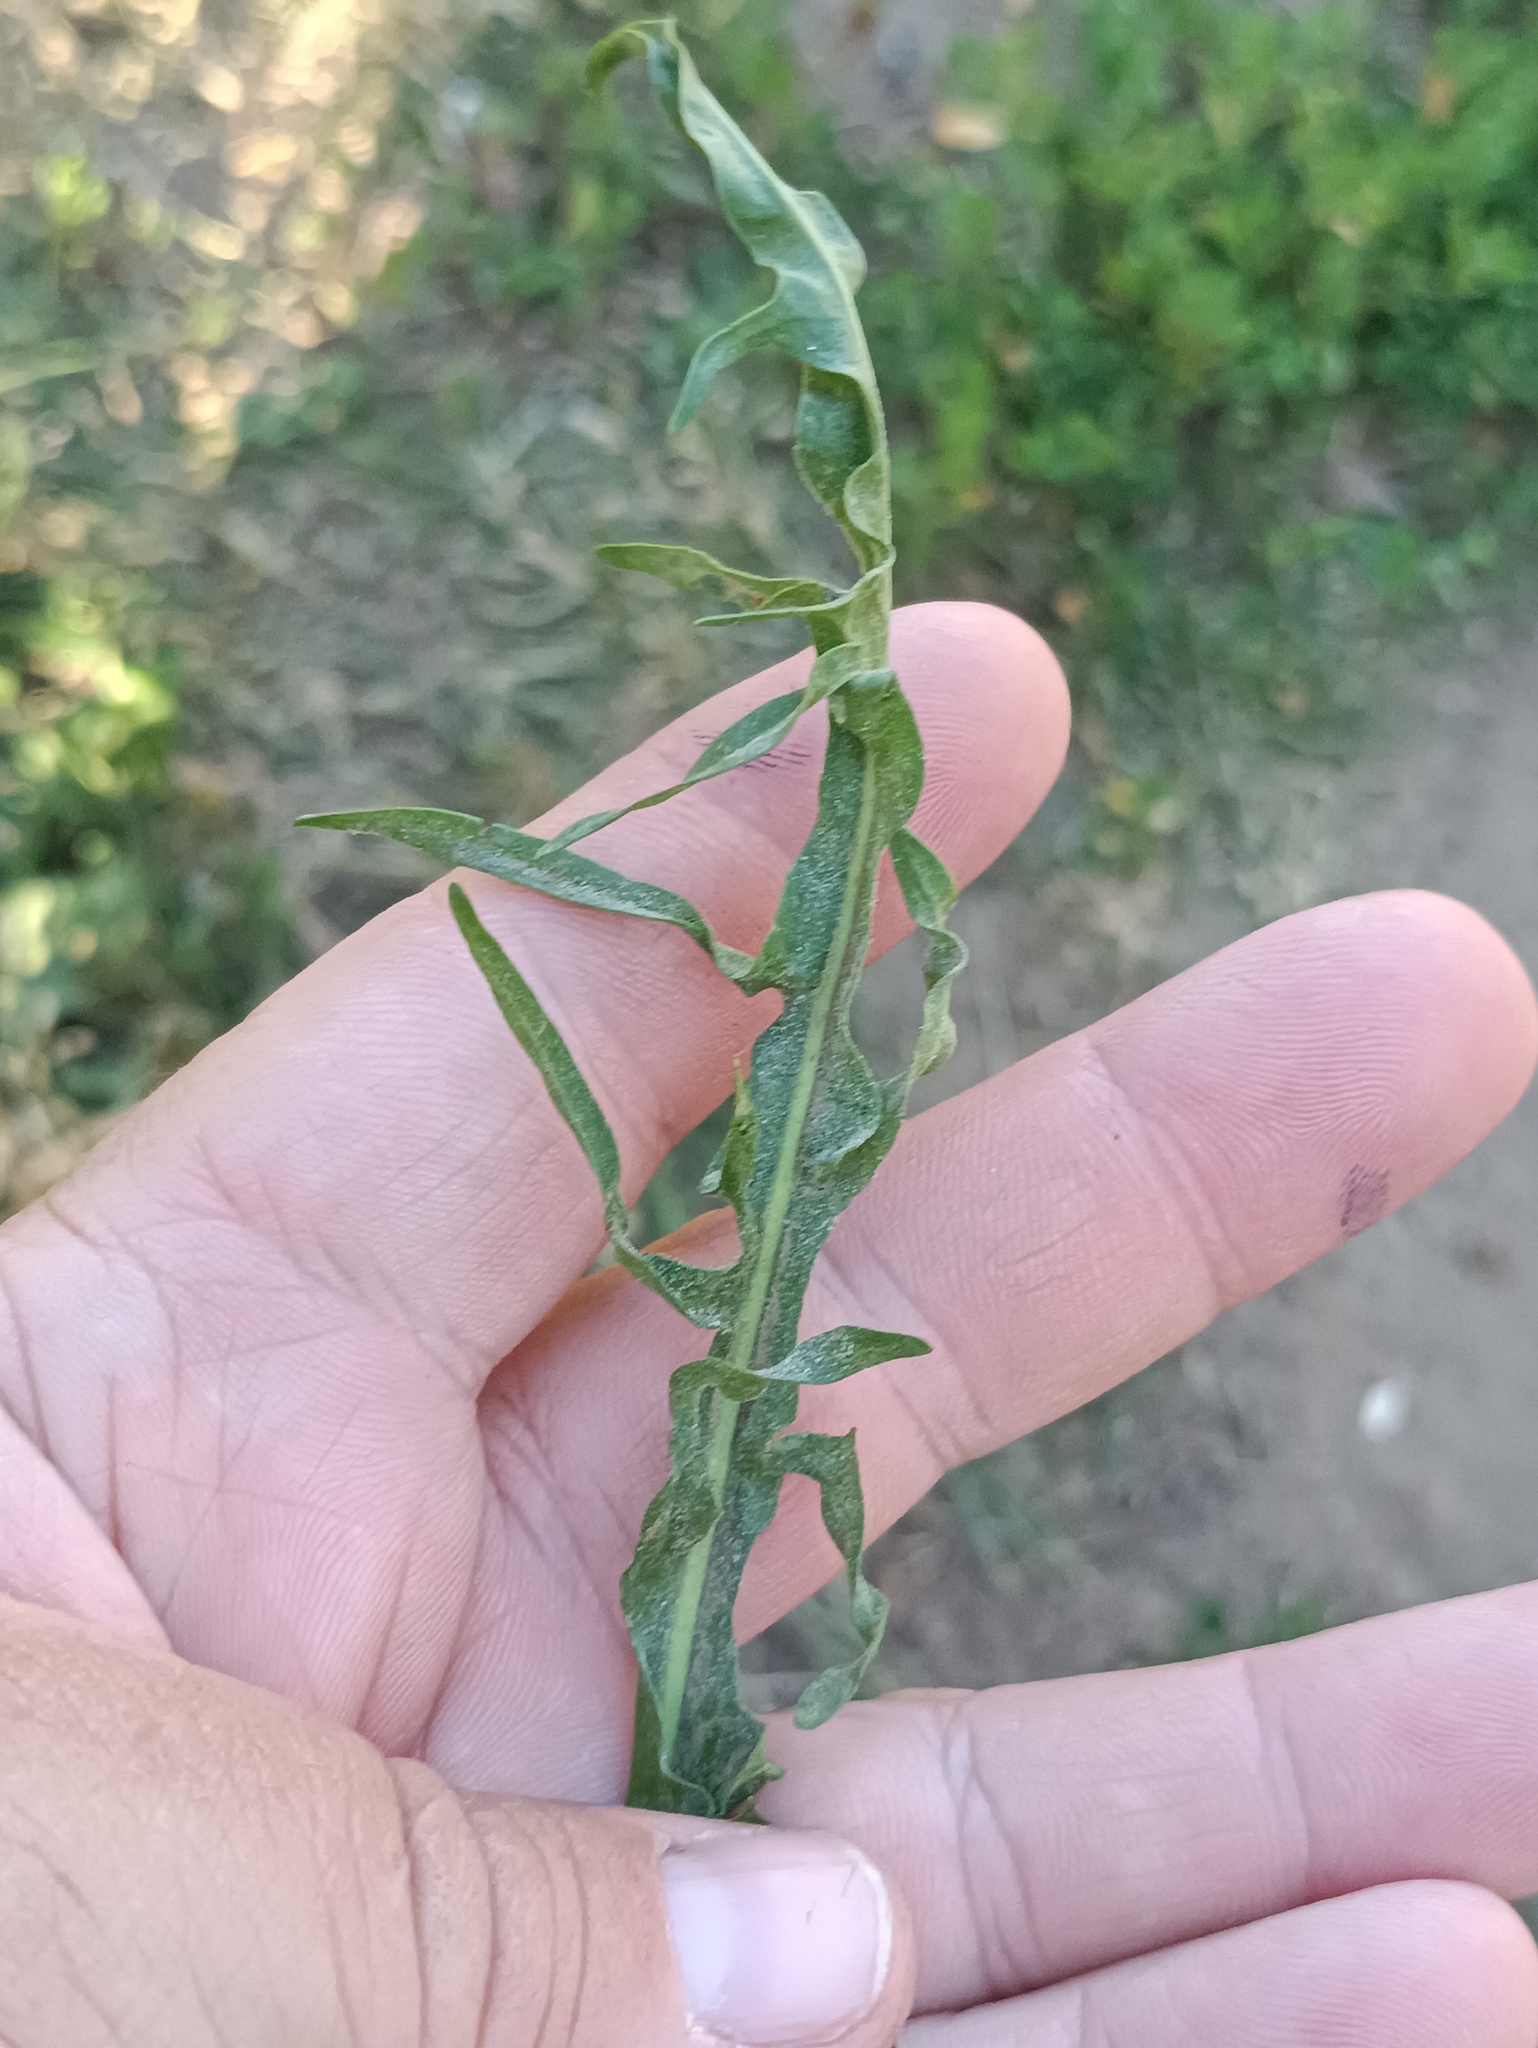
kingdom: Plantae
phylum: Tracheophyta
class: Magnoliopsida
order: Asterales
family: Asteraceae
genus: Scorzoneroides
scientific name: Scorzoneroides autumnalis
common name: Autumn hawkbit
